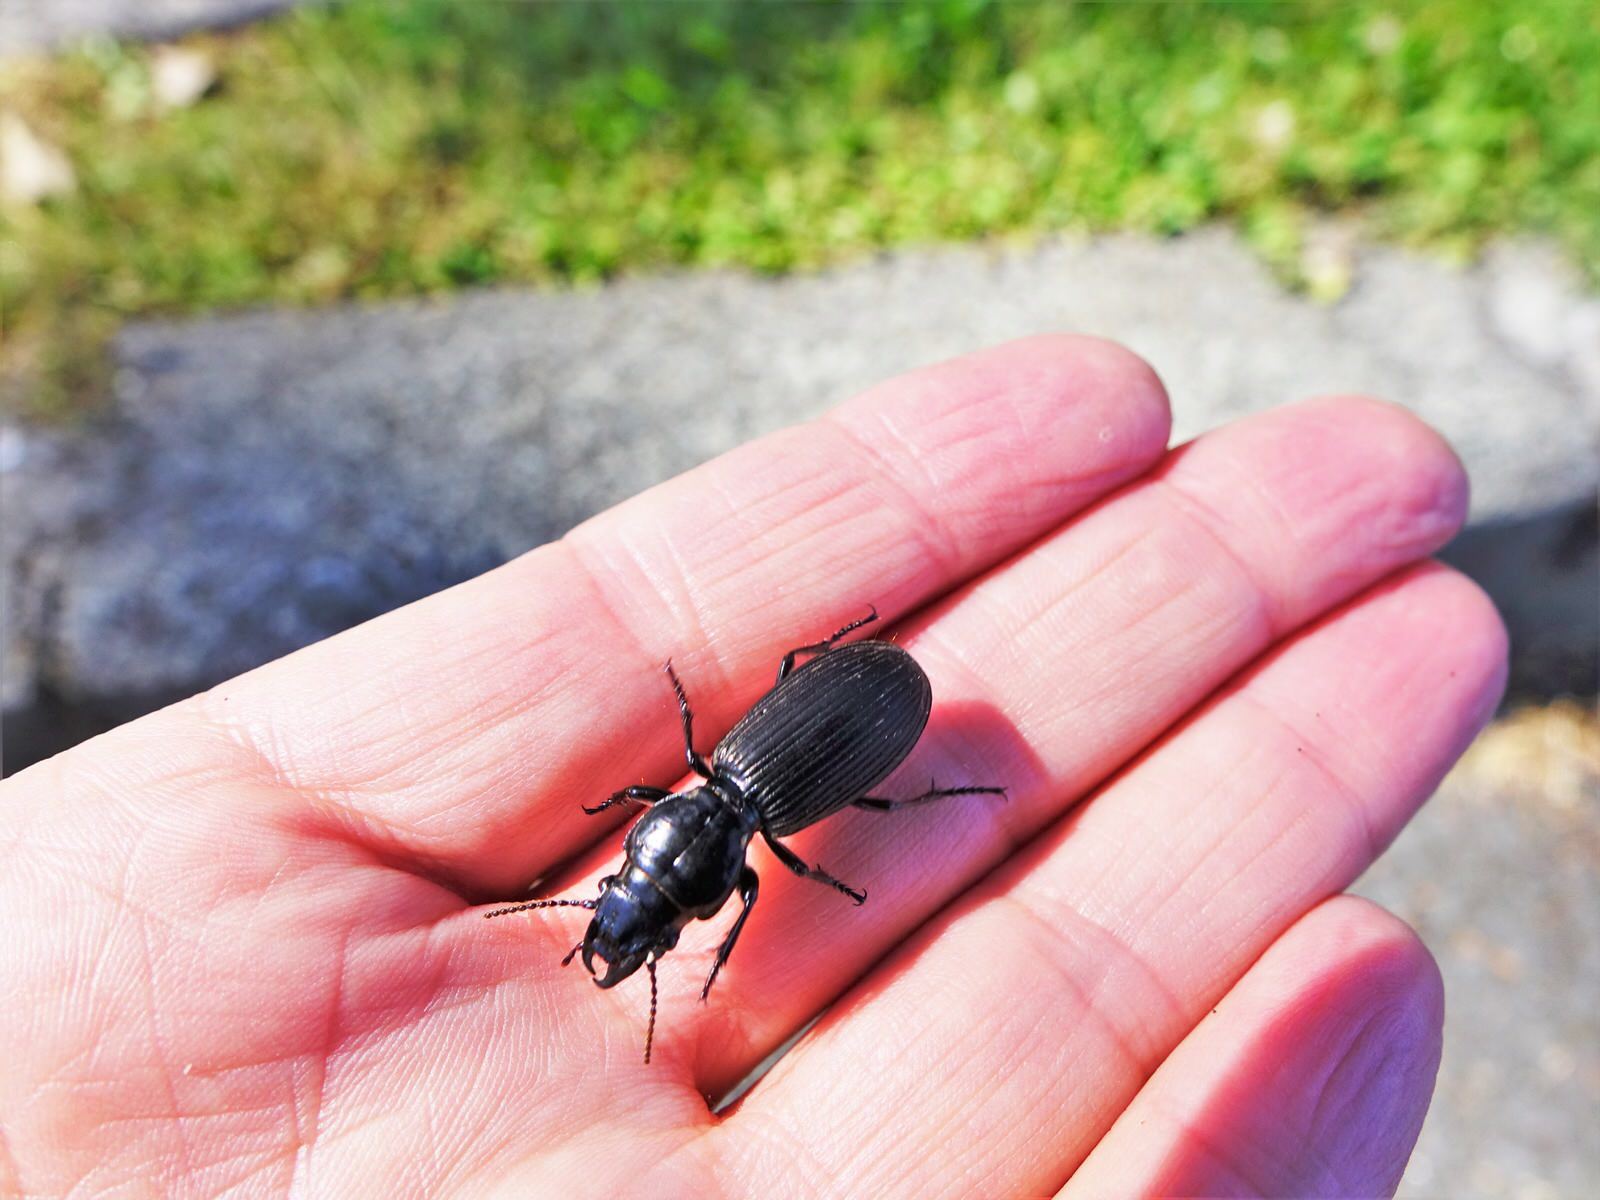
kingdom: Animalia
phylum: Arthropoda
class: Insecta
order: Coleoptera
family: Carabidae
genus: Mecodema
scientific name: Mecodema spiniferum
